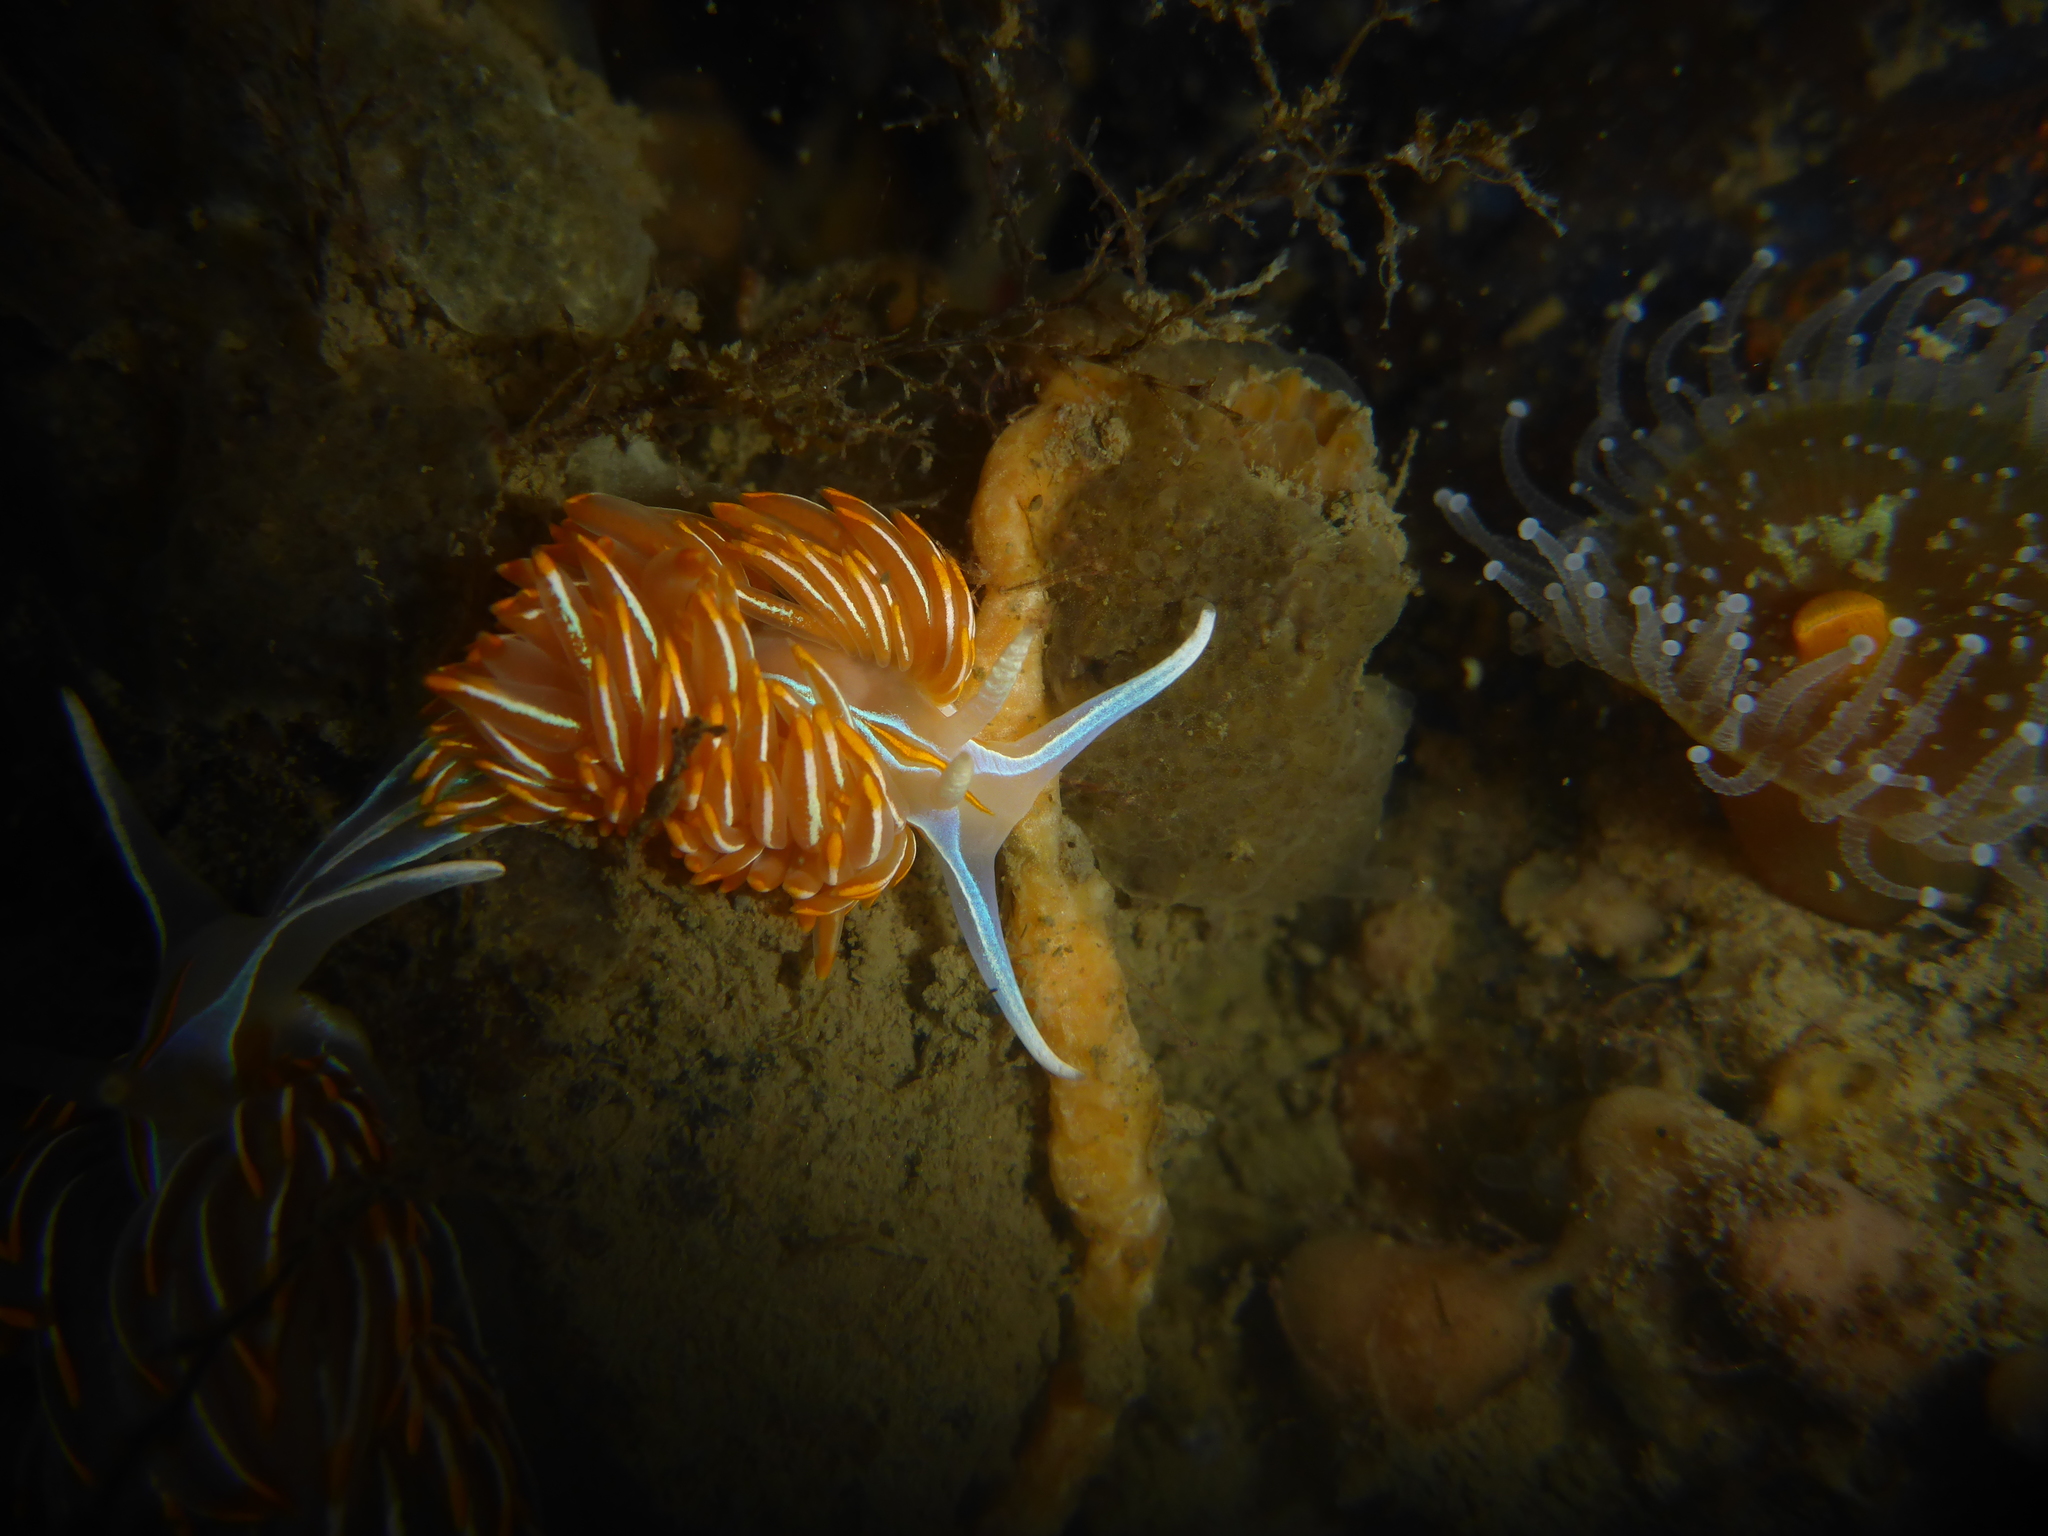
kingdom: Animalia
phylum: Mollusca
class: Gastropoda
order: Nudibranchia
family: Myrrhinidae
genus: Hermissenda
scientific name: Hermissenda crassicornis
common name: Hermissenda
